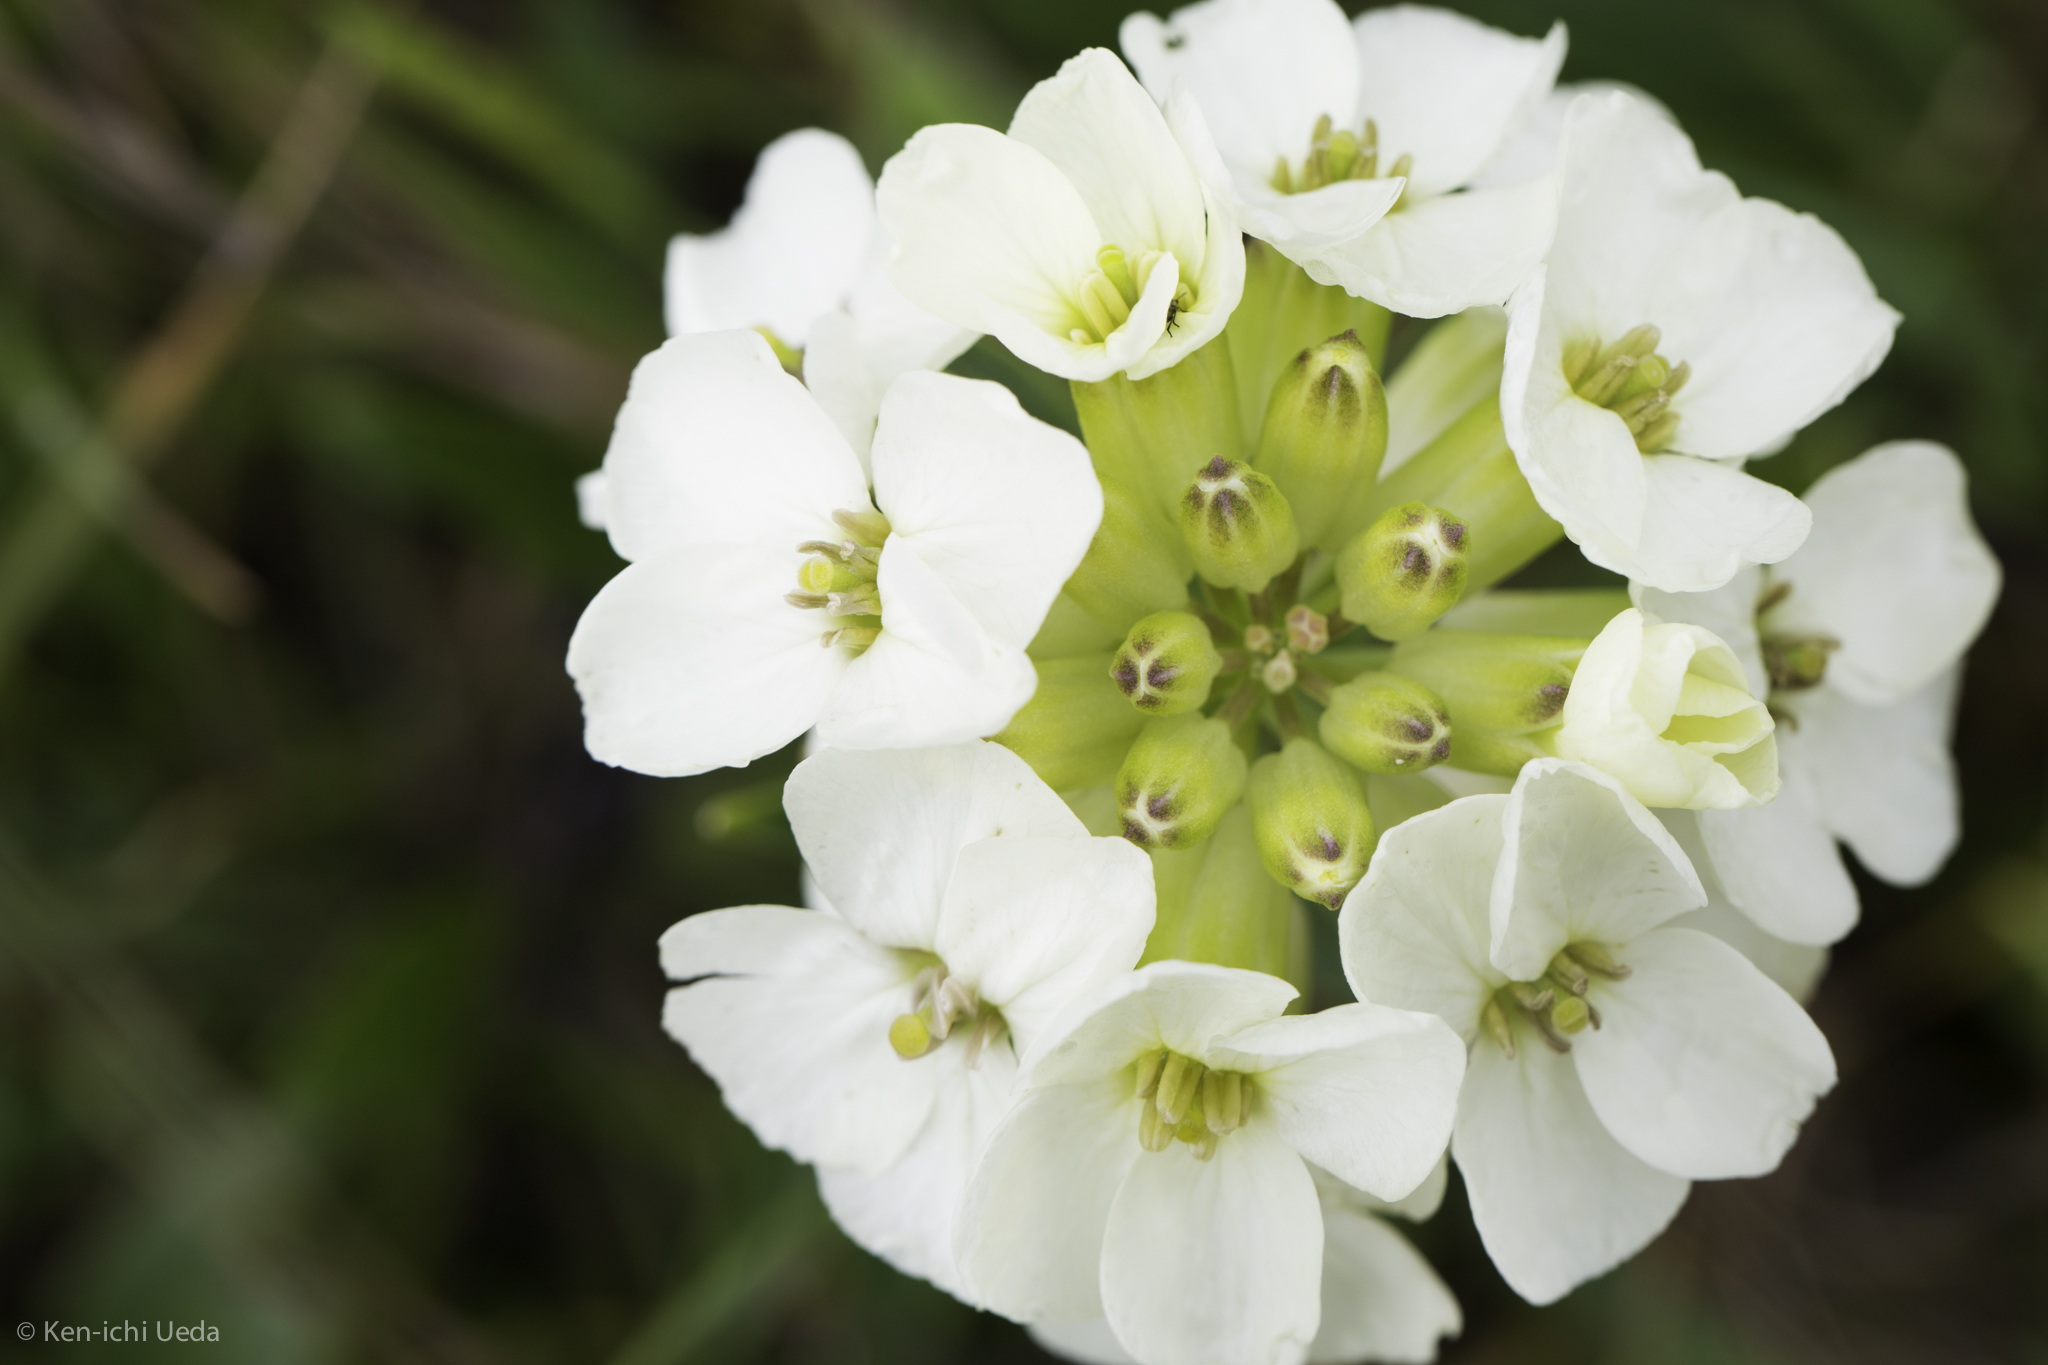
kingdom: Plantae
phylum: Tracheophyta
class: Magnoliopsida
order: Brassicales
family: Brassicaceae
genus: Erysimum
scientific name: Erysimum concinnum
